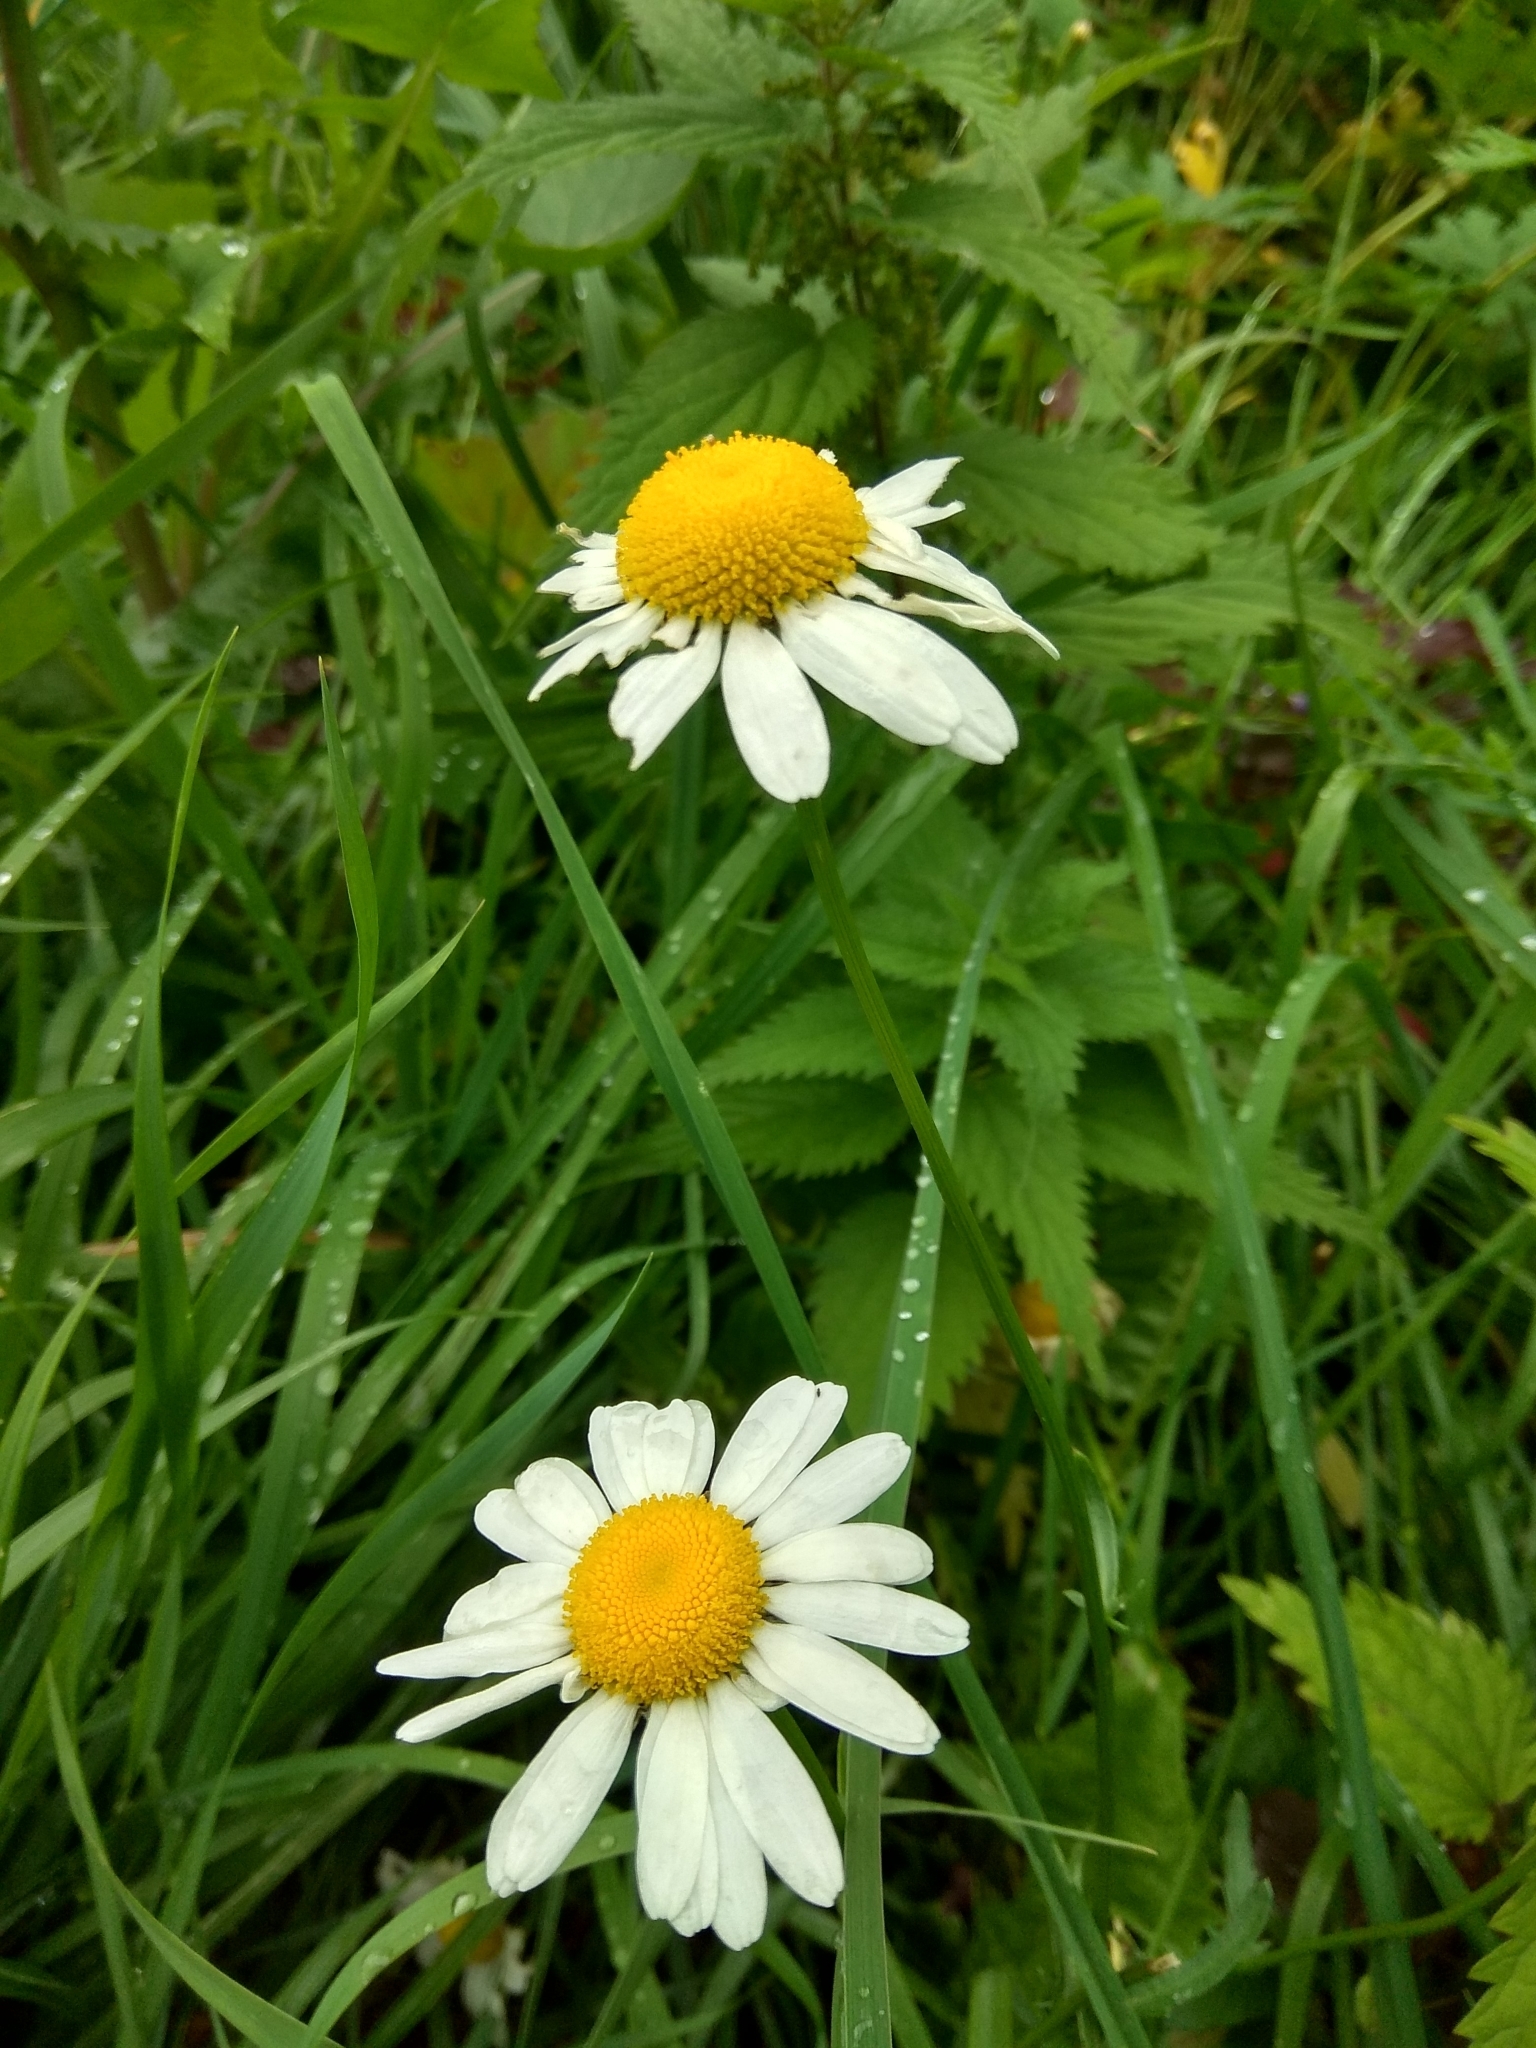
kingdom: Plantae
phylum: Tracheophyta
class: Magnoliopsida
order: Asterales
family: Asteraceae
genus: Leucanthemum
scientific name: Leucanthemum vulgare
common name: Oxeye daisy
